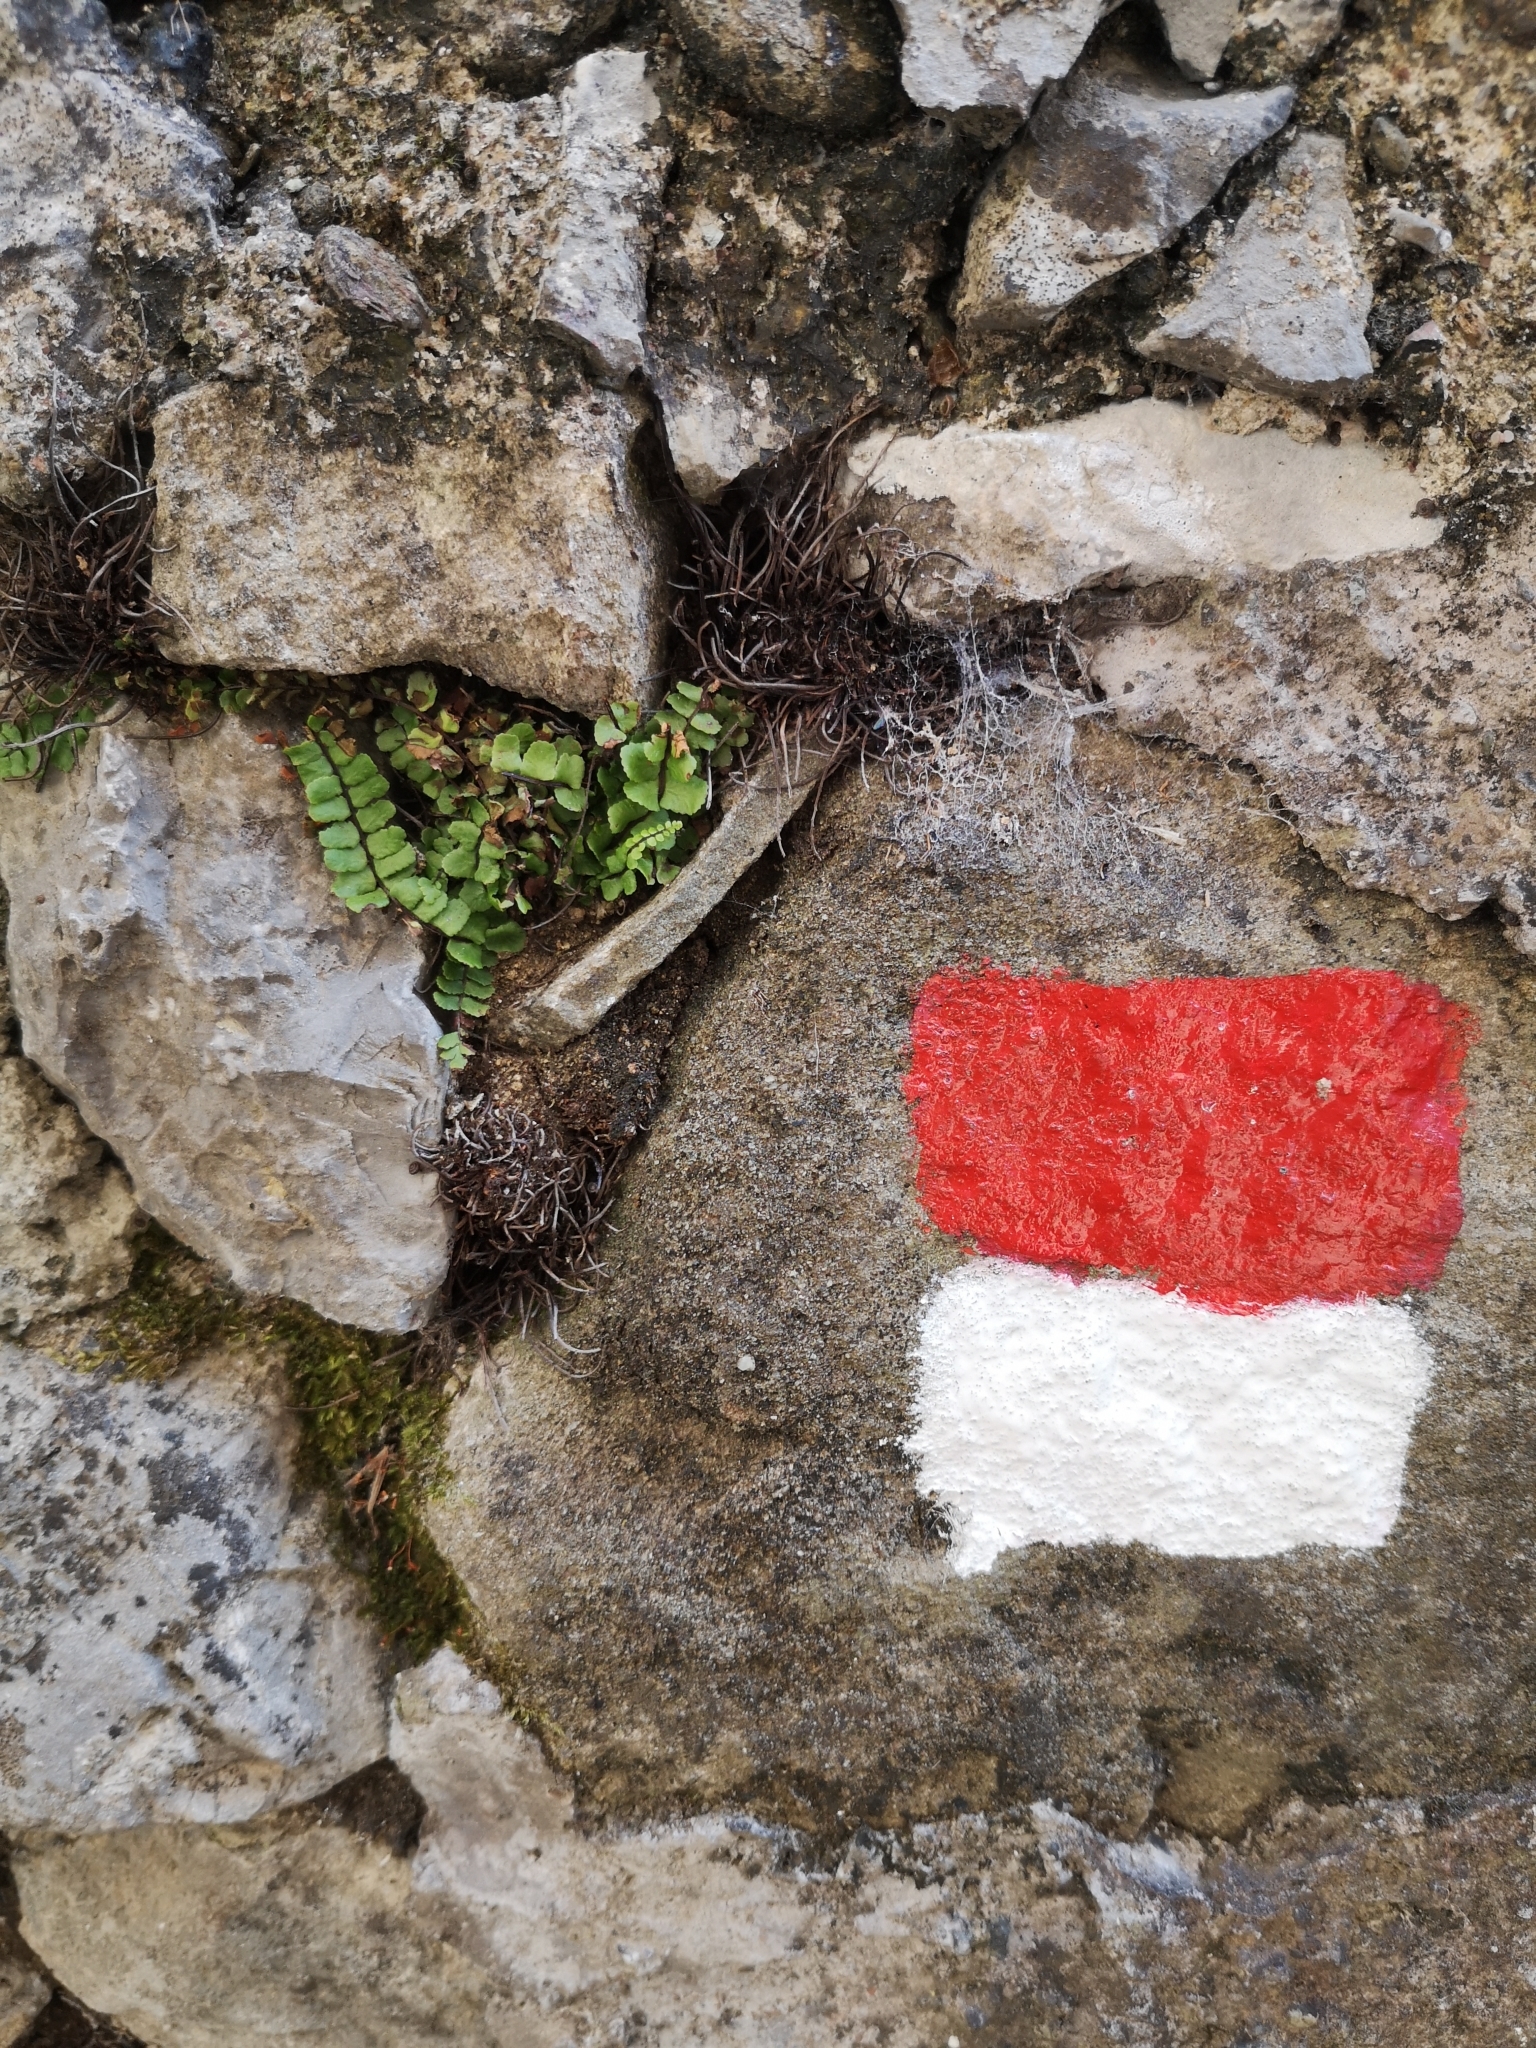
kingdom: Plantae
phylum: Tracheophyta
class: Polypodiopsida
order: Polypodiales
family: Aspleniaceae
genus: Asplenium
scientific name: Asplenium trichomanes
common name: Maidenhair spleenwort
